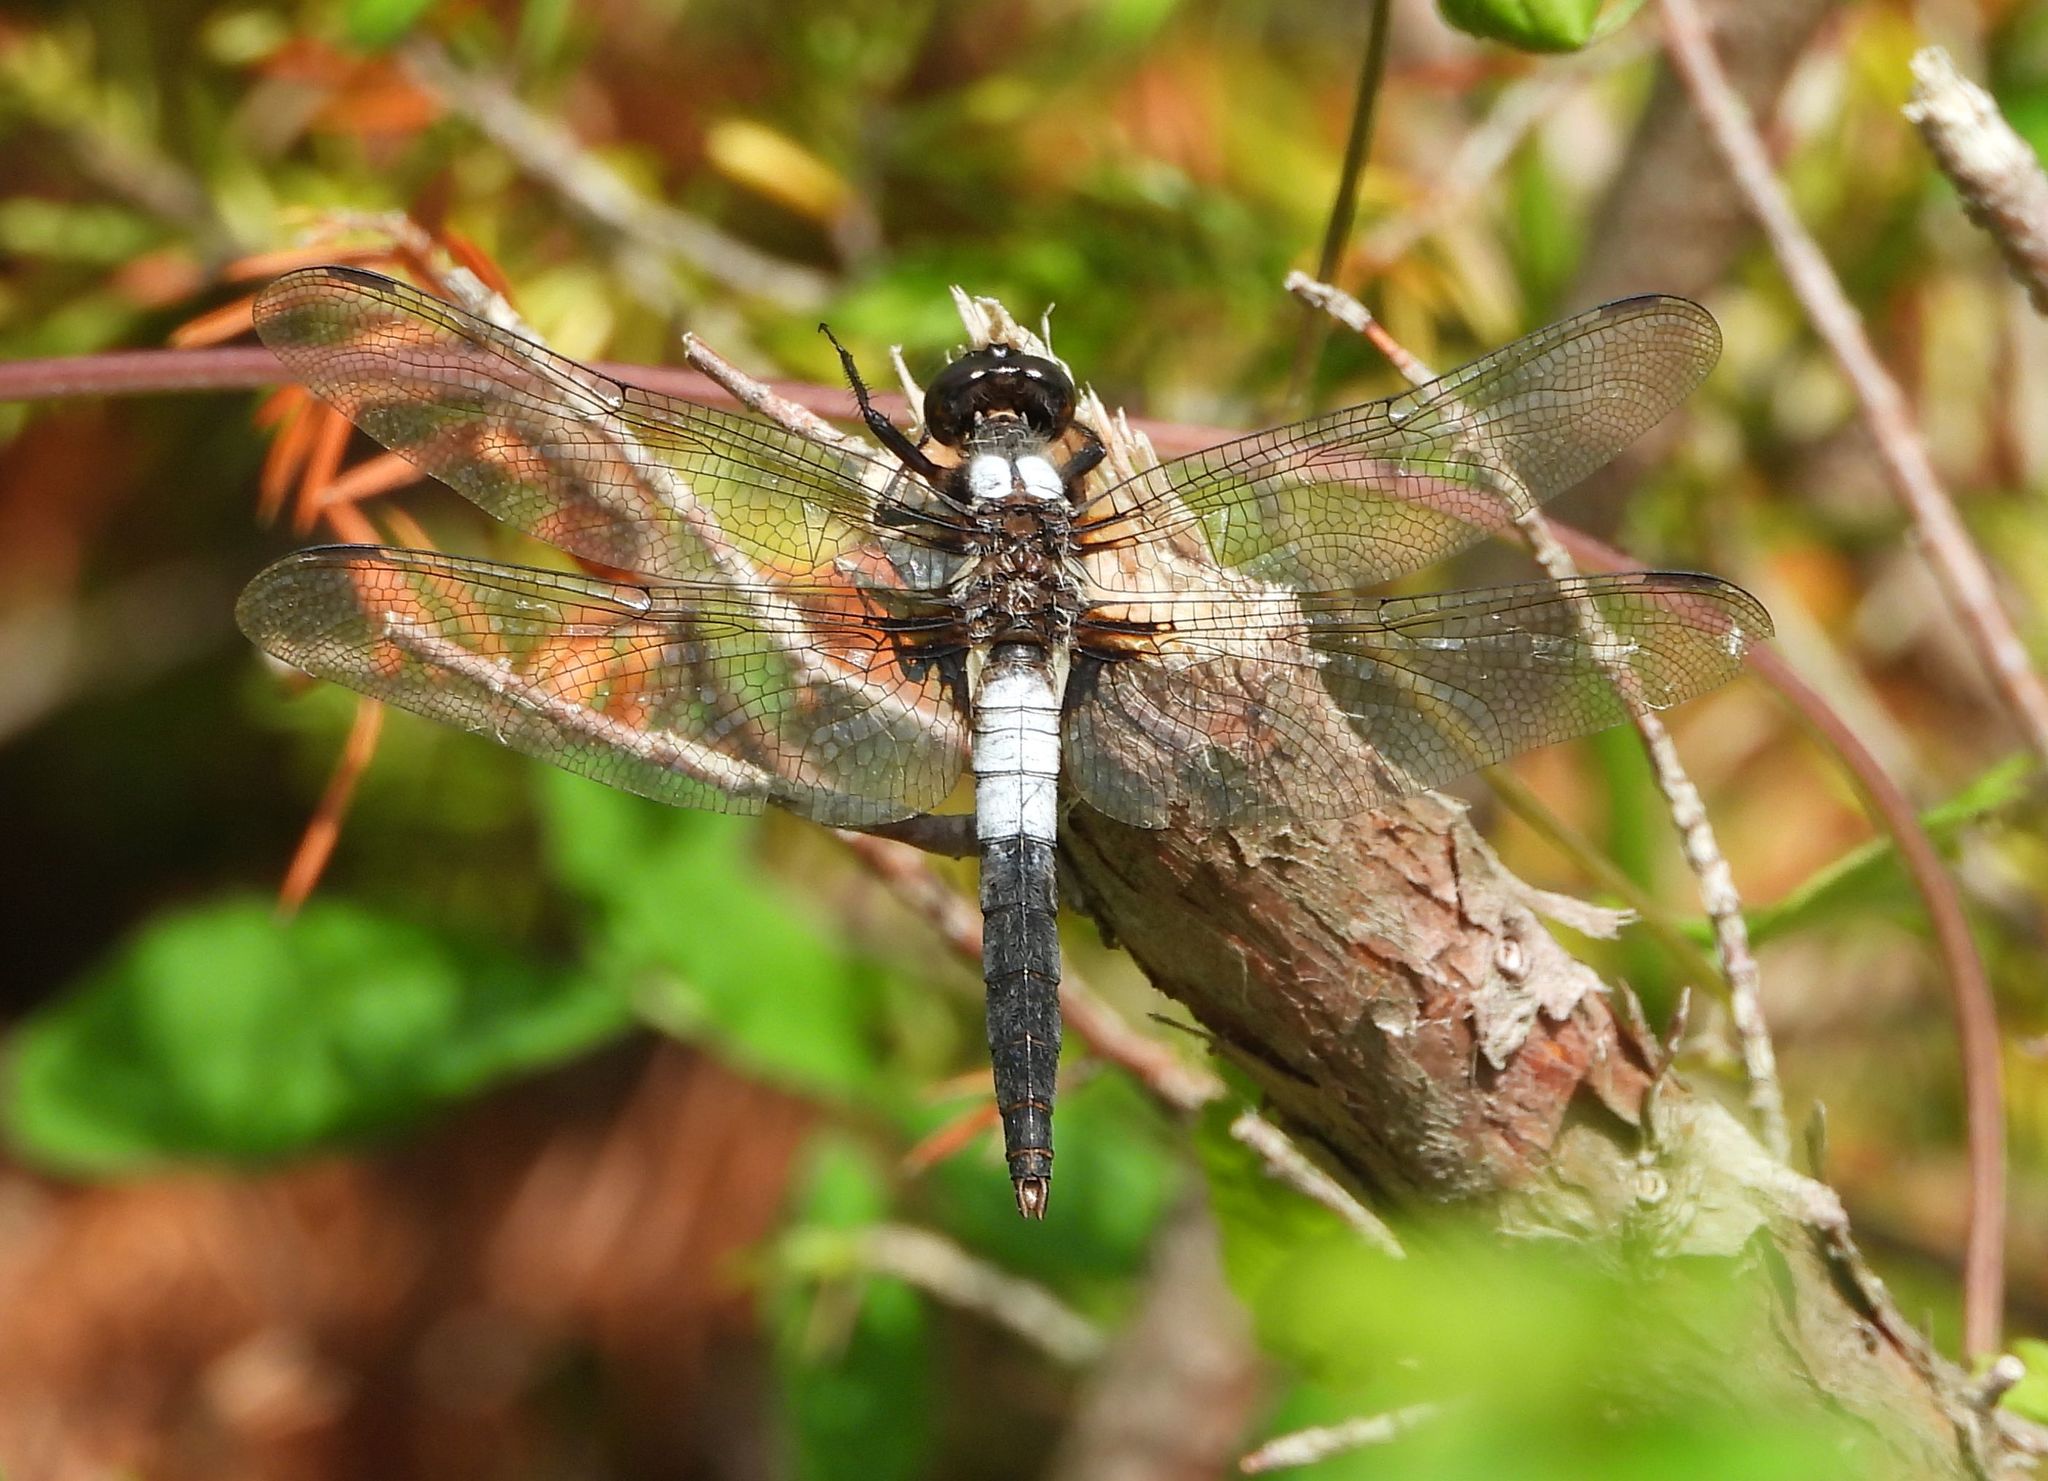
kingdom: Animalia
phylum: Arthropoda
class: Insecta
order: Odonata
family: Libellulidae
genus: Ladona
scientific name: Ladona julia
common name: Chalk-fronted corporal
